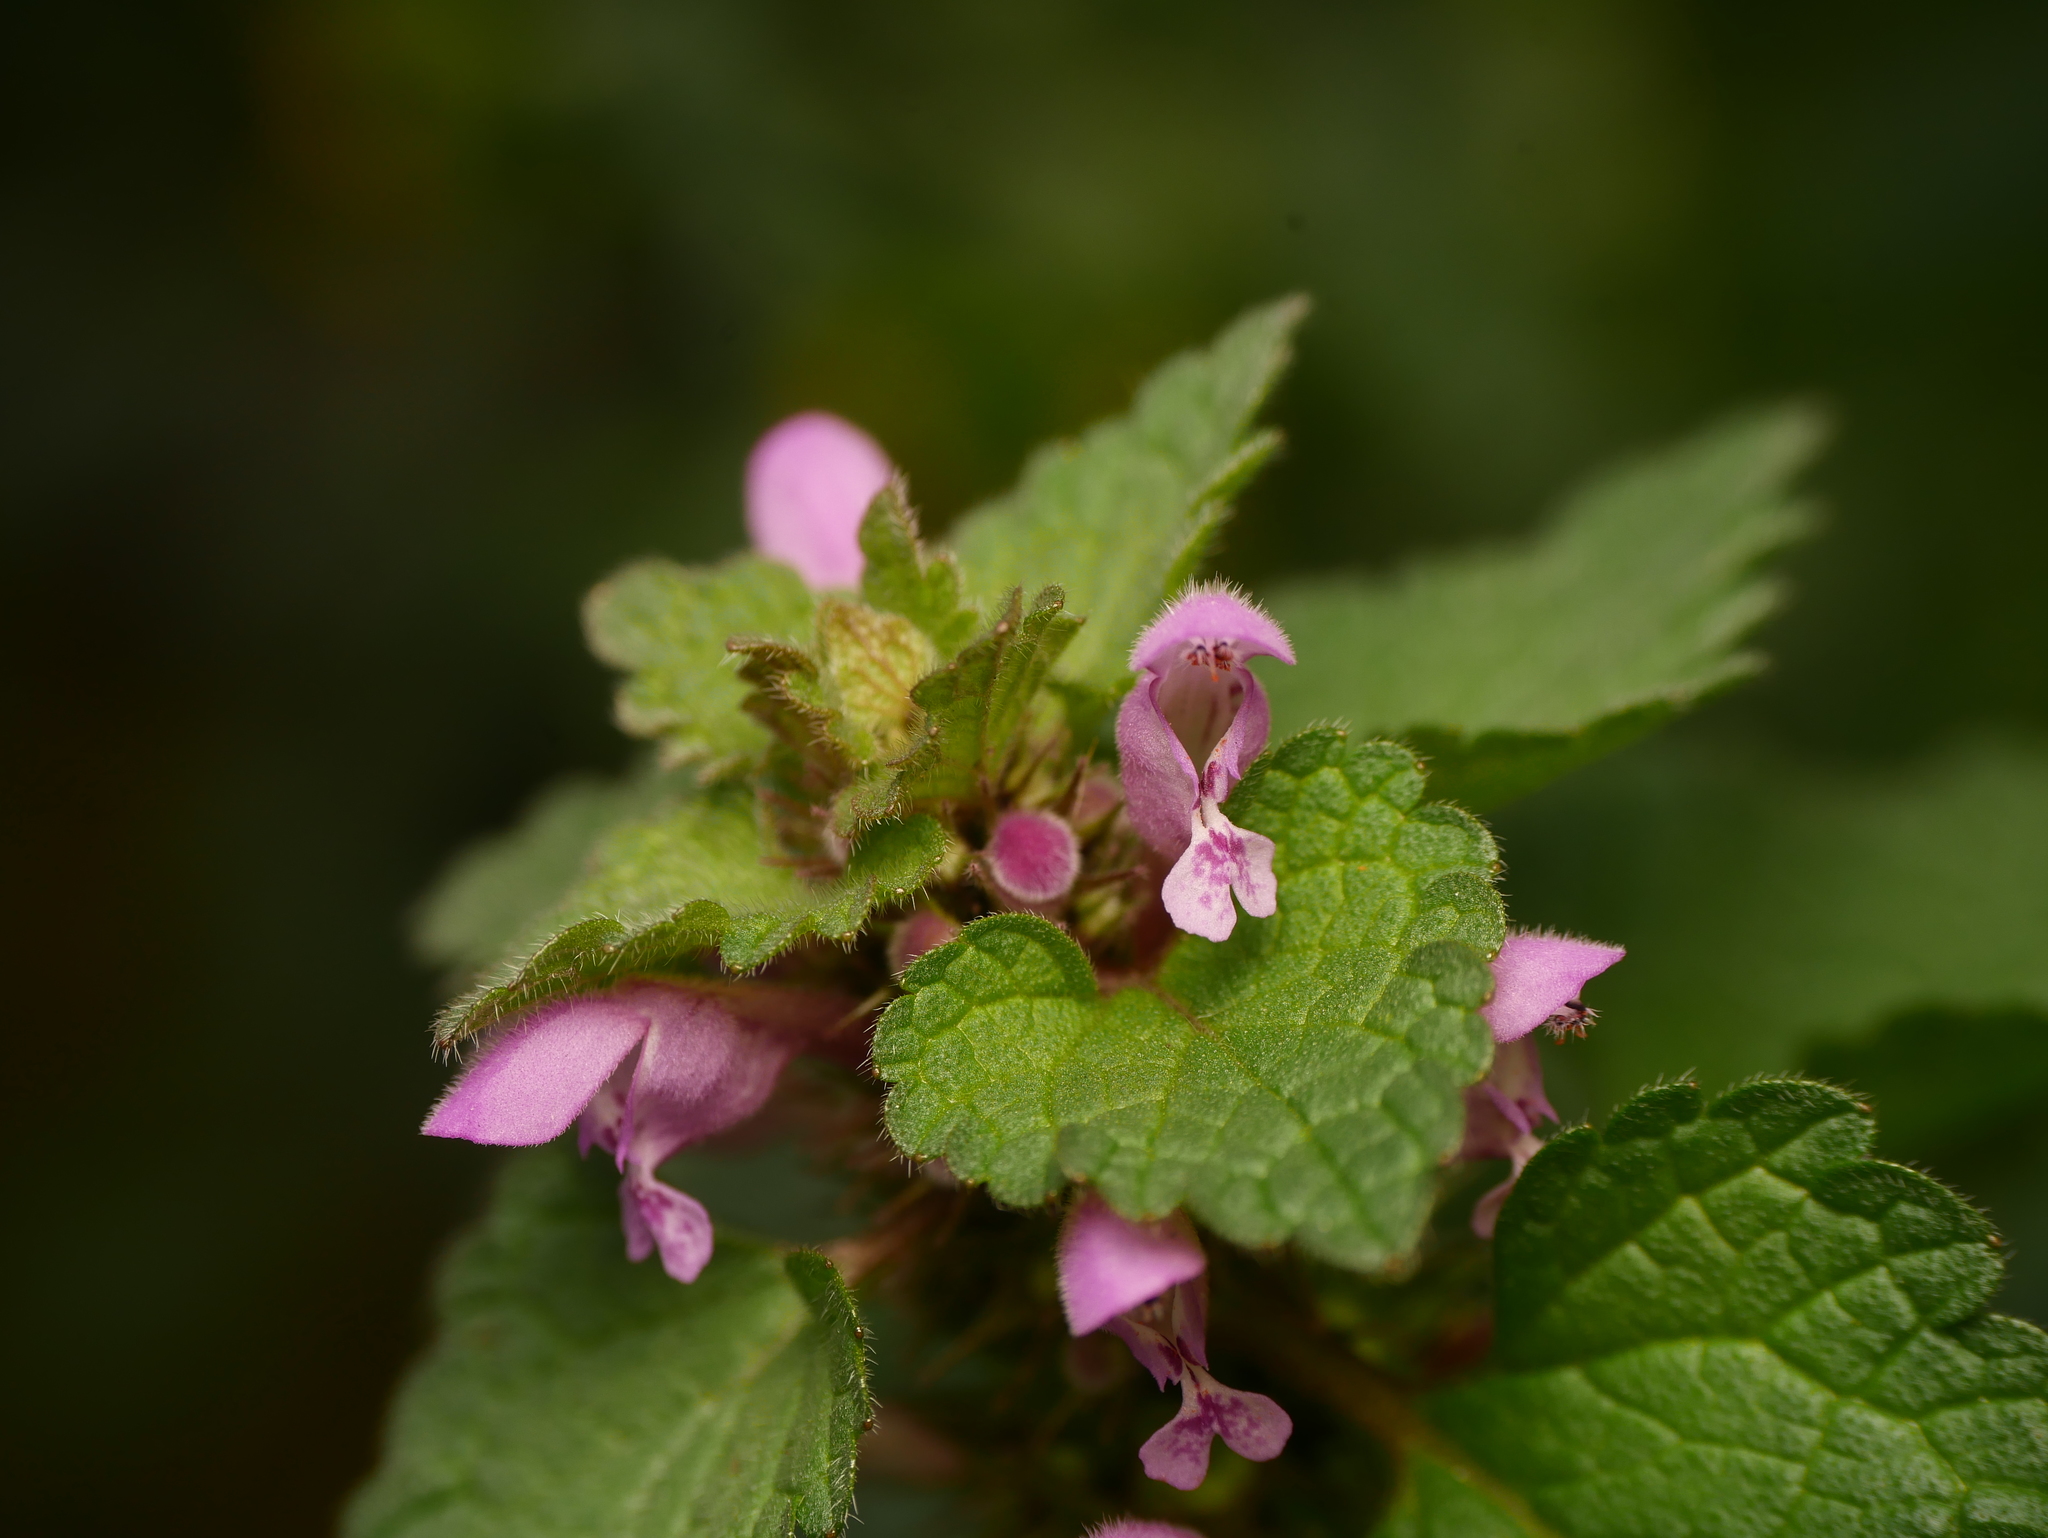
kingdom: Plantae
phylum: Tracheophyta
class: Magnoliopsida
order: Lamiales
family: Lamiaceae
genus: Lamium
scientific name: Lamium purpureum
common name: Red dead-nettle
